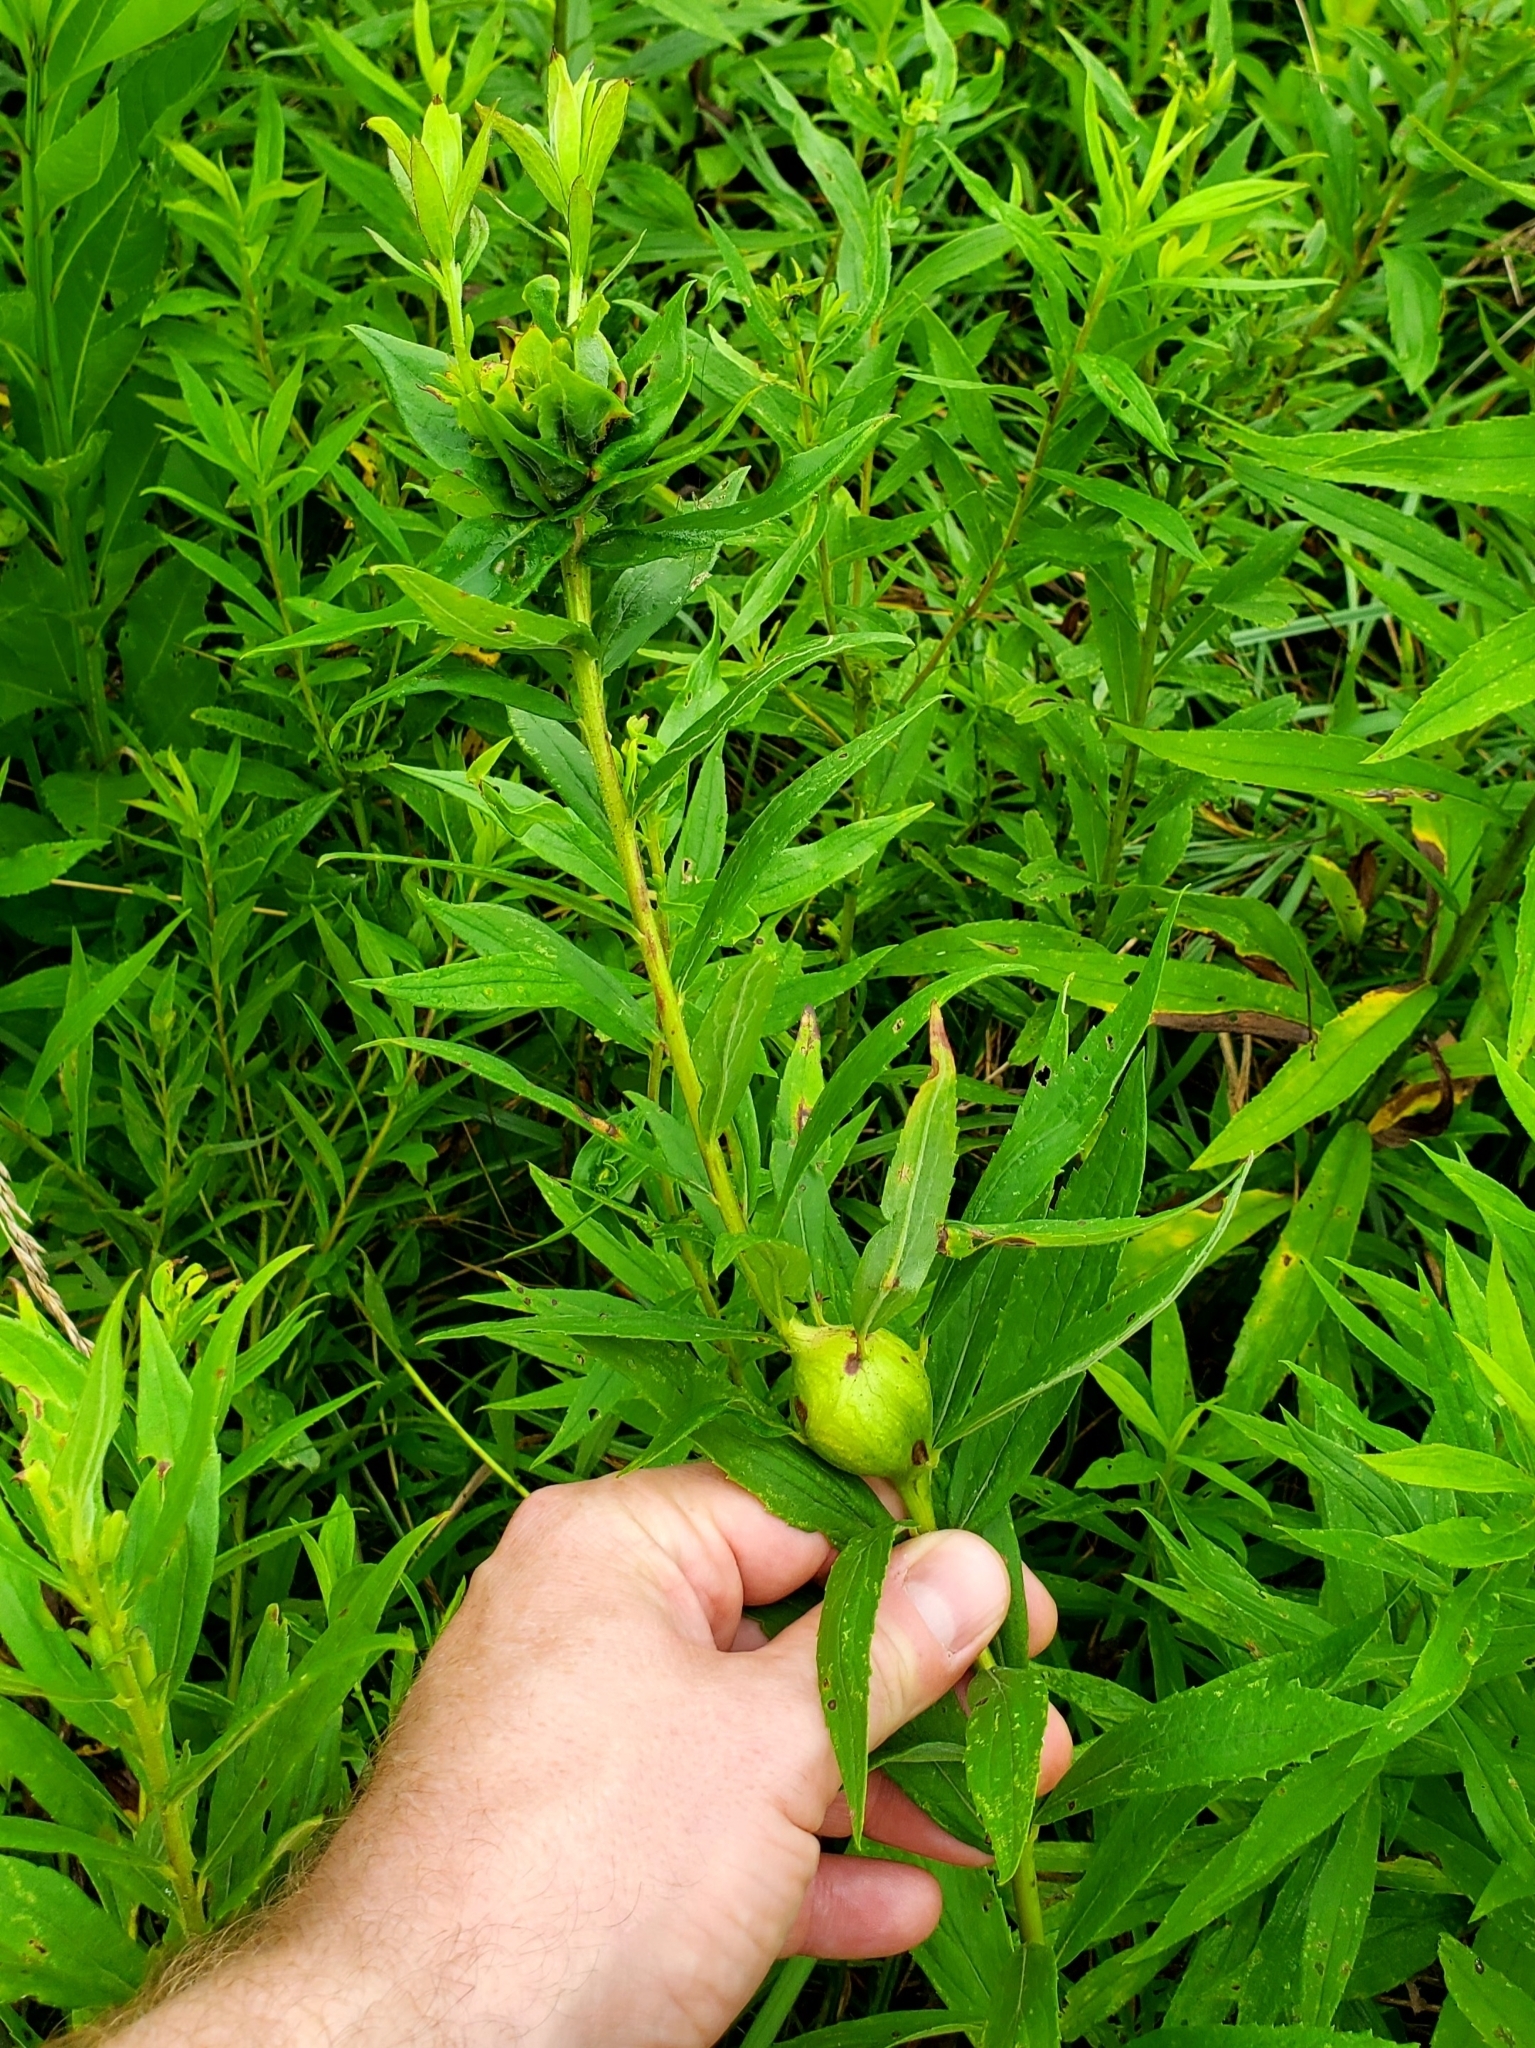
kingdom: Animalia
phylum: Arthropoda
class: Insecta
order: Diptera
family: Cecidomyiidae
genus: Rhopalomyia
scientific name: Rhopalomyia solidaginis
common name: Goldenrod bunch gall midge
